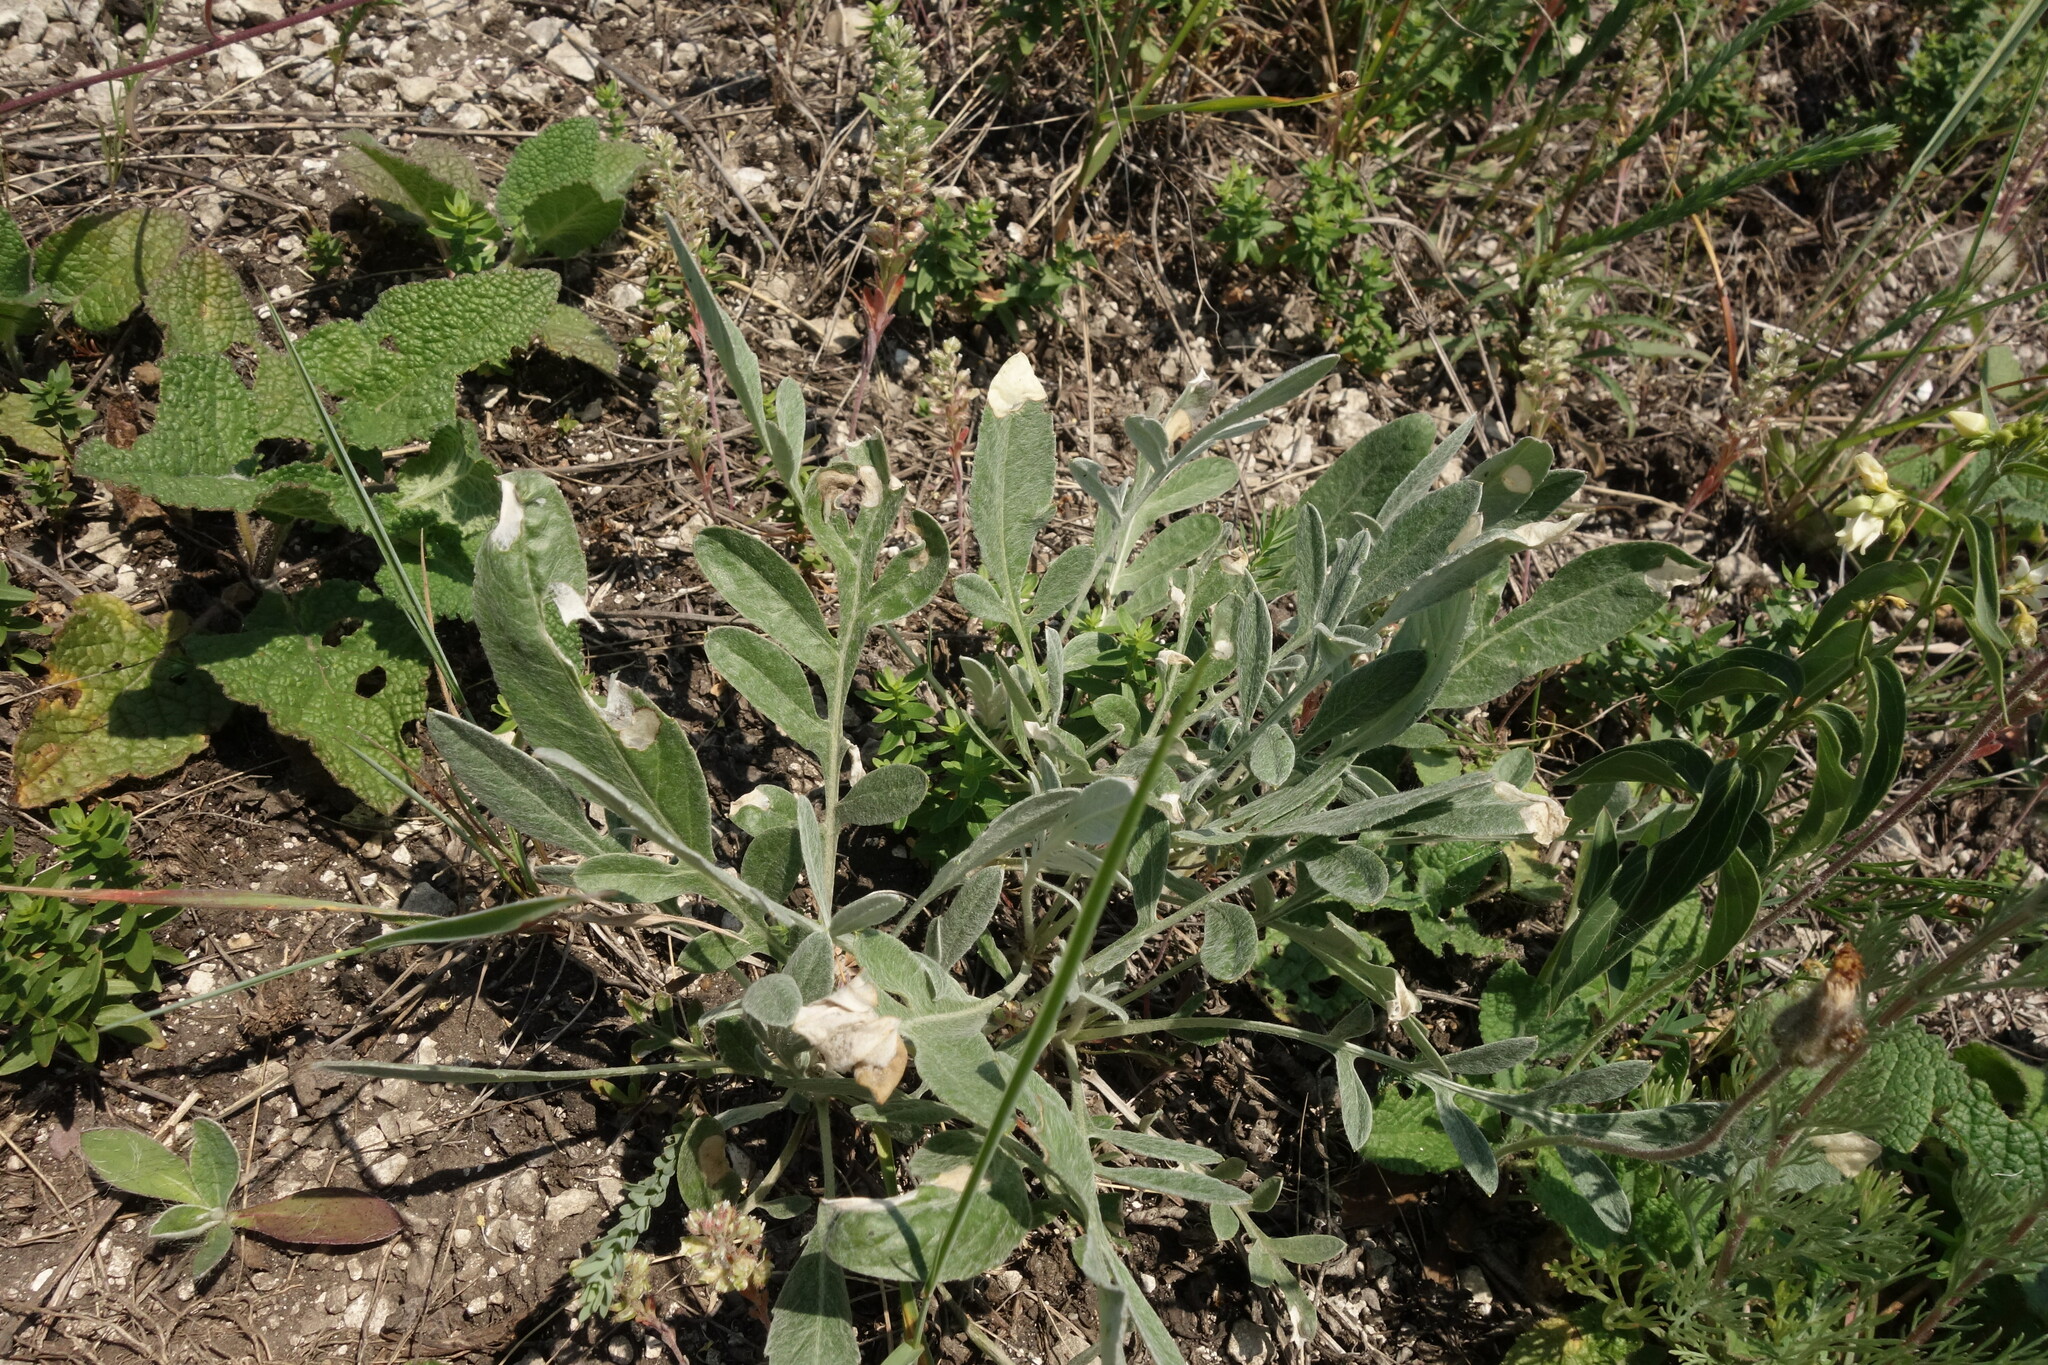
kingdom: Plantae
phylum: Tracheophyta
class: Magnoliopsida
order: Asterales
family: Asteraceae
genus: Psephellus
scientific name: Psephellus sumensis
